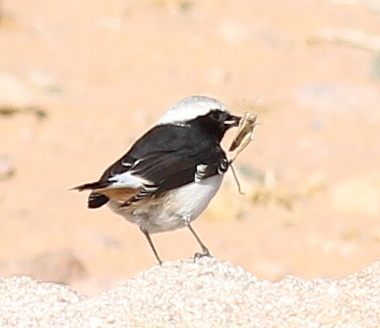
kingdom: Animalia
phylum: Chordata
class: Aves
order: Passeriformes
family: Muscicapidae
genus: Oenanthe
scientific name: Oenanthe lugens
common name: Mourning wheatear
